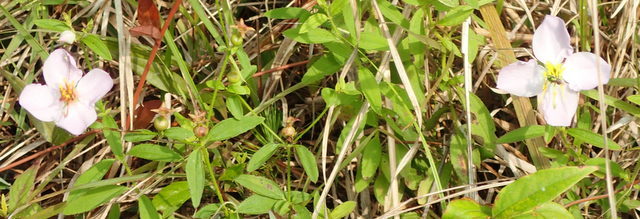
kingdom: Plantae
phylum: Tracheophyta
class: Magnoliopsida
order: Myrtales
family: Melastomataceae
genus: Rhexia
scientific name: Rhexia mariana
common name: Dull meadow-pitcher
